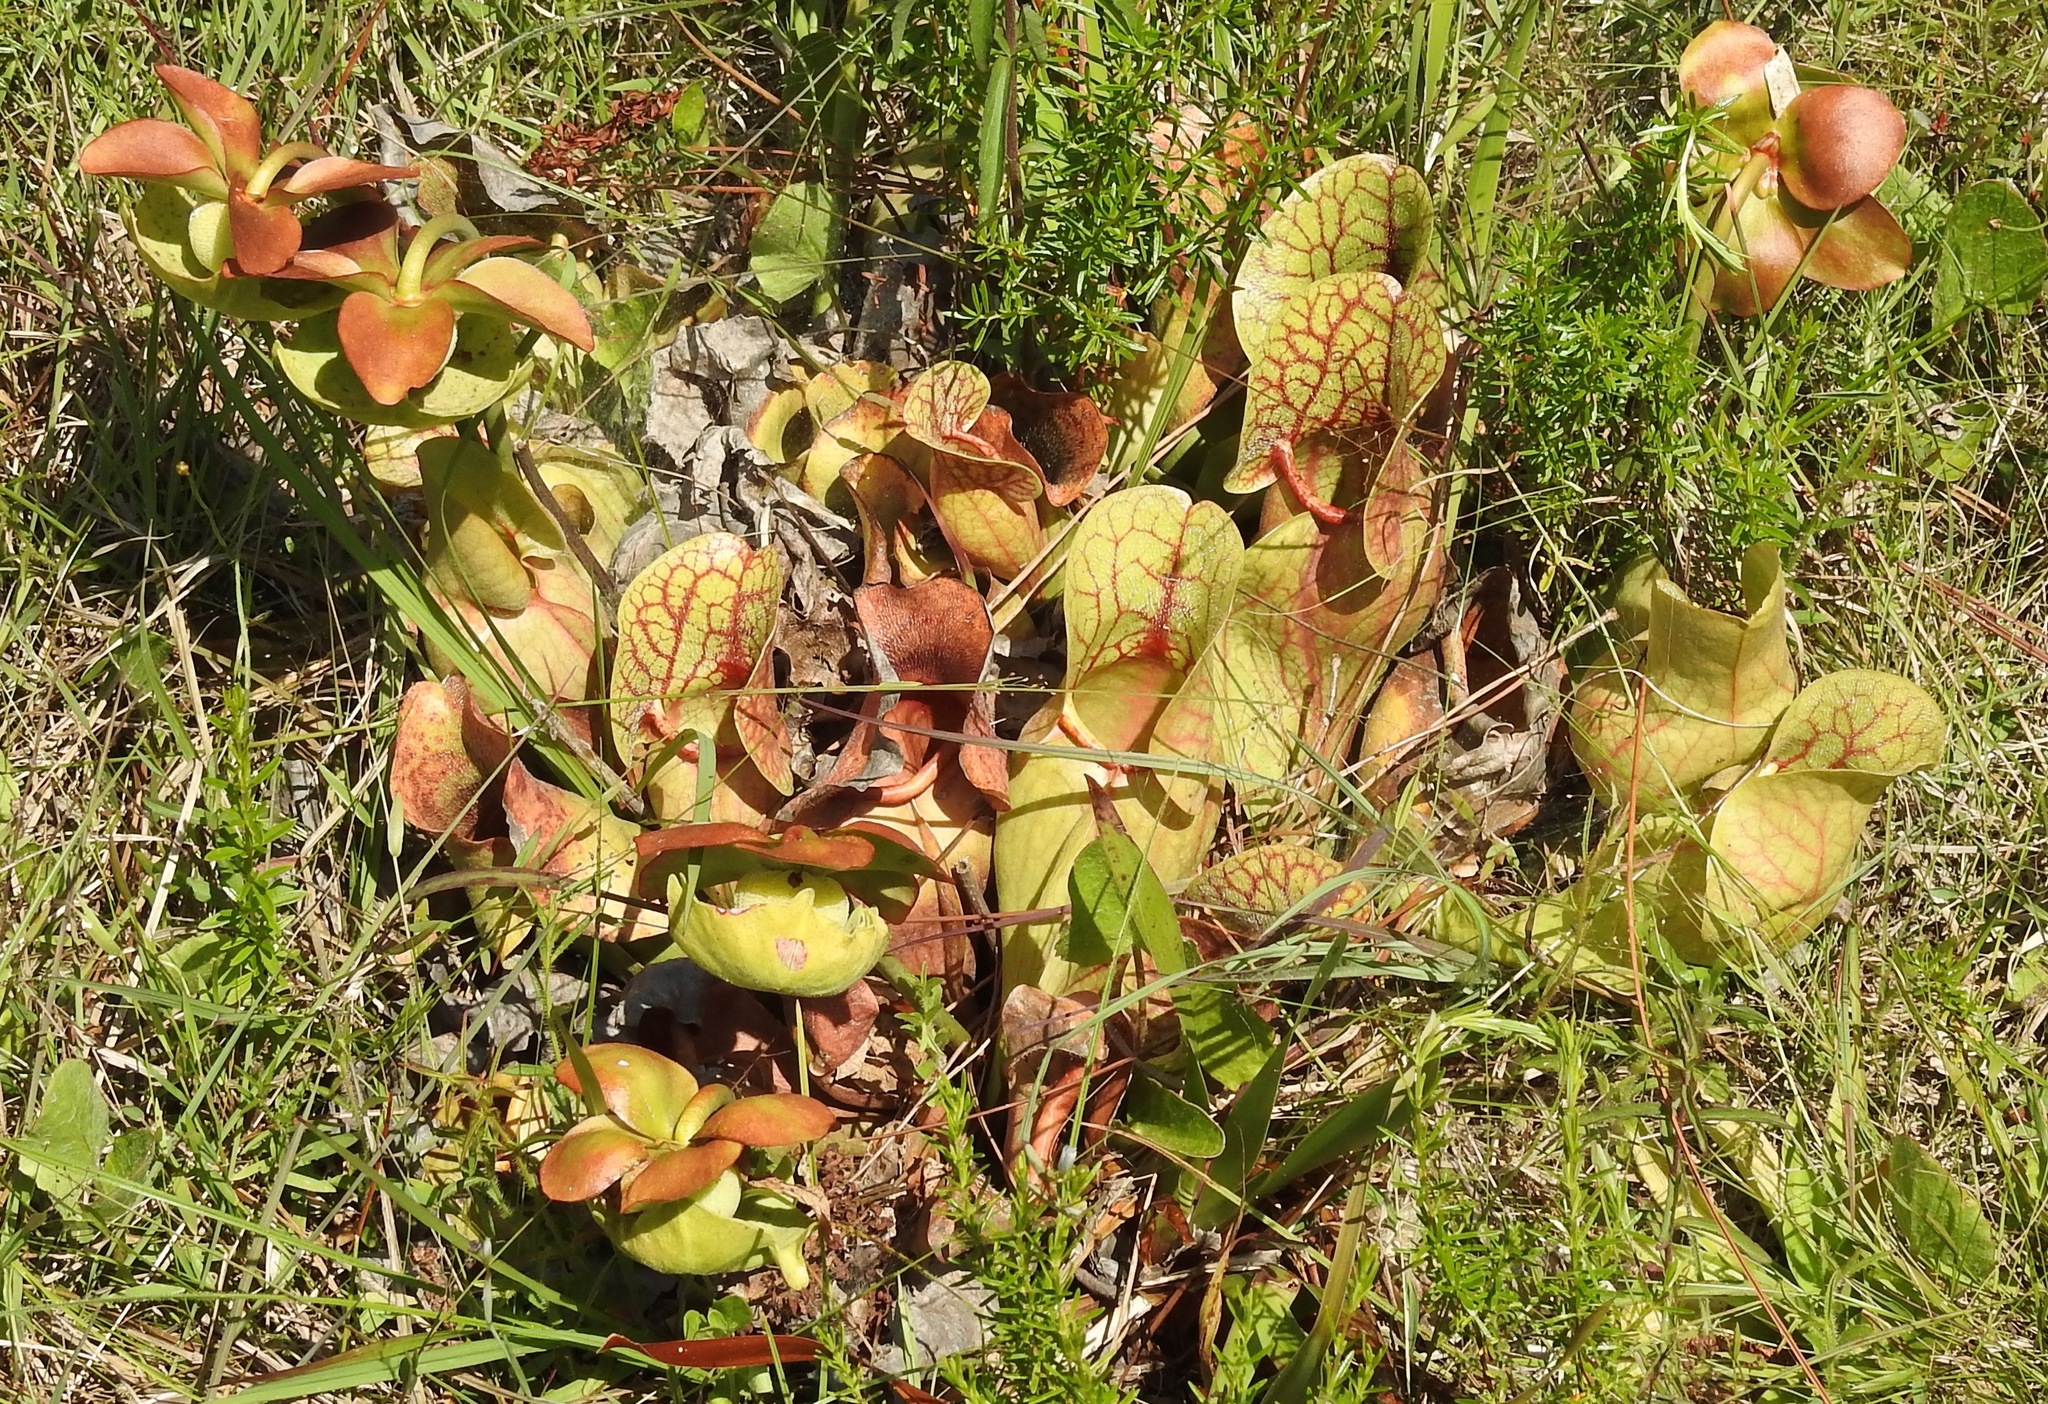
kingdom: Plantae
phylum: Tracheophyta
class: Magnoliopsida
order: Ericales
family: Sarraceniaceae
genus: Sarracenia
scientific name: Sarracenia rosea
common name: Pink pitcherplant
